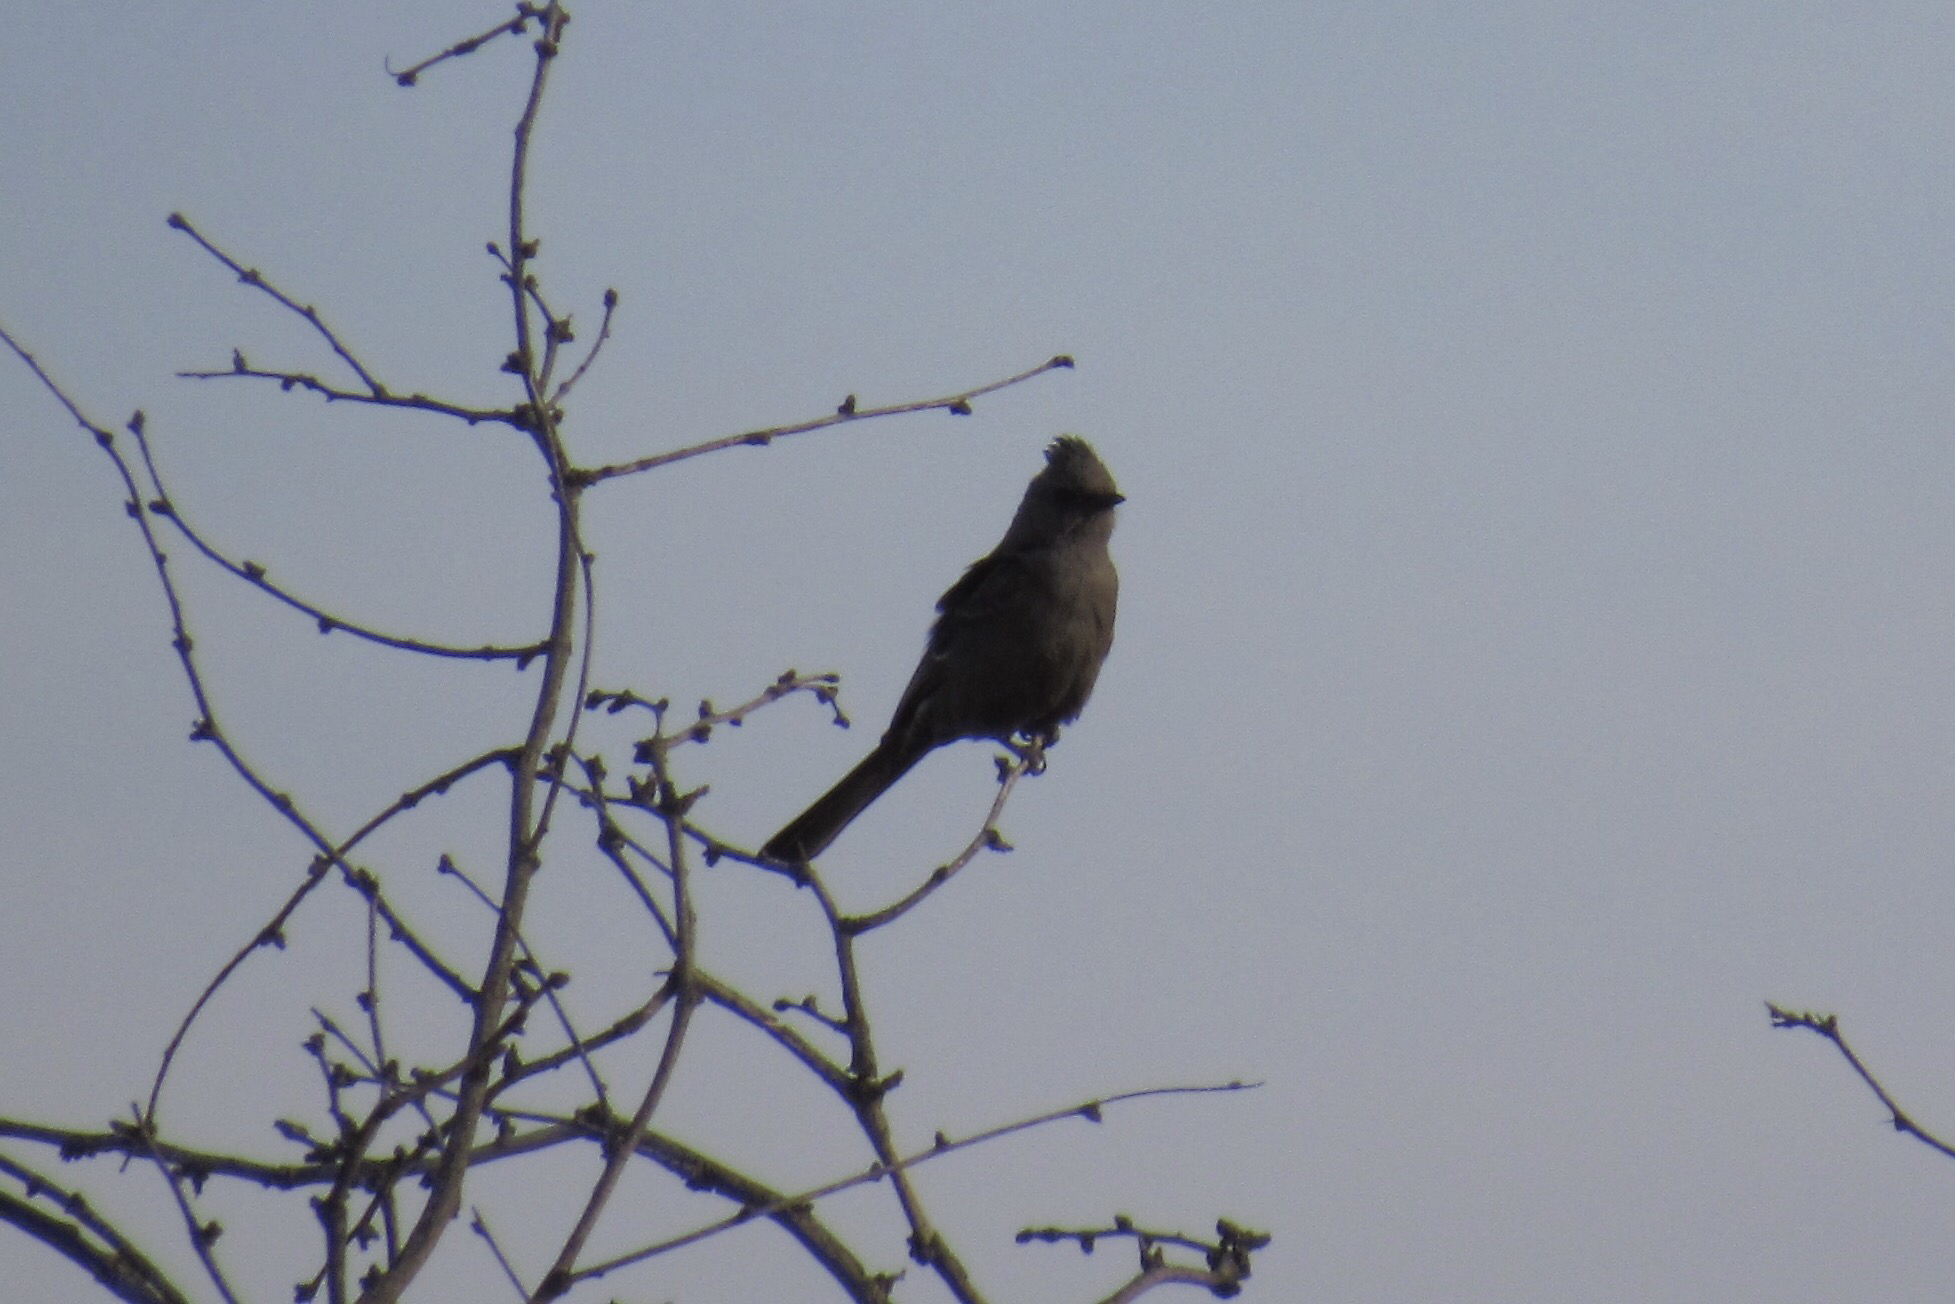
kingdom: Animalia
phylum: Chordata
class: Aves
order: Passeriformes
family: Ptilogonatidae
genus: Phainopepla
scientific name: Phainopepla nitens
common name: Phainopepla
